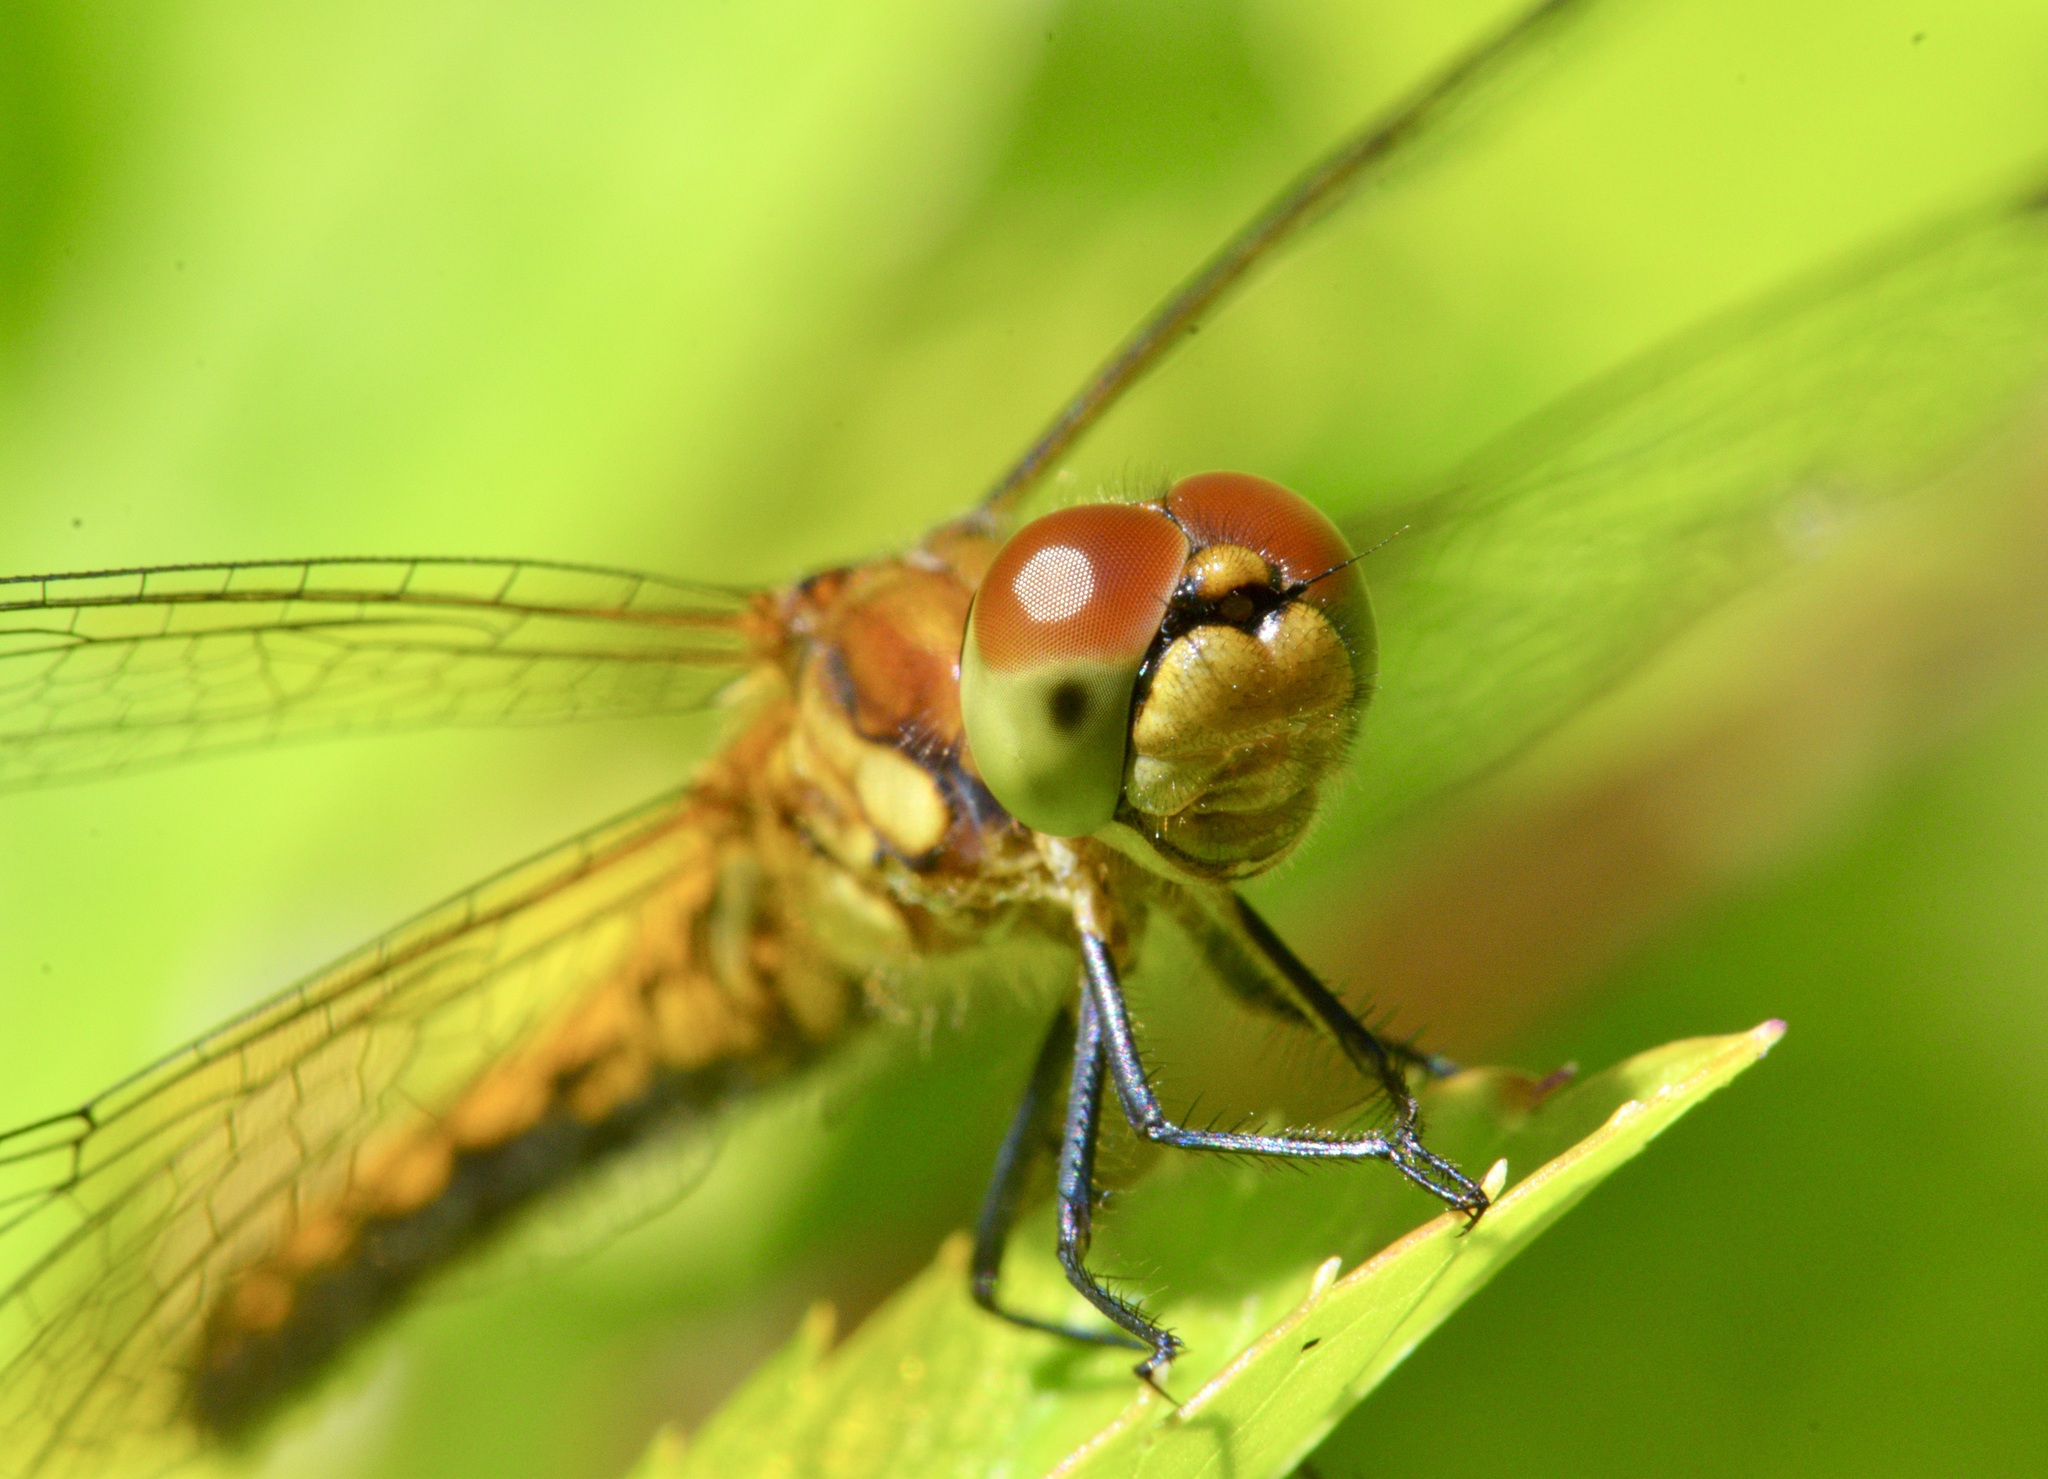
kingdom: Animalia
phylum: Arthropoda
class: Insecta
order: Odonata
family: Libellulidae
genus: Sympetrum
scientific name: Sympetrum semicinctum
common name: Band-winged meadowhawk
